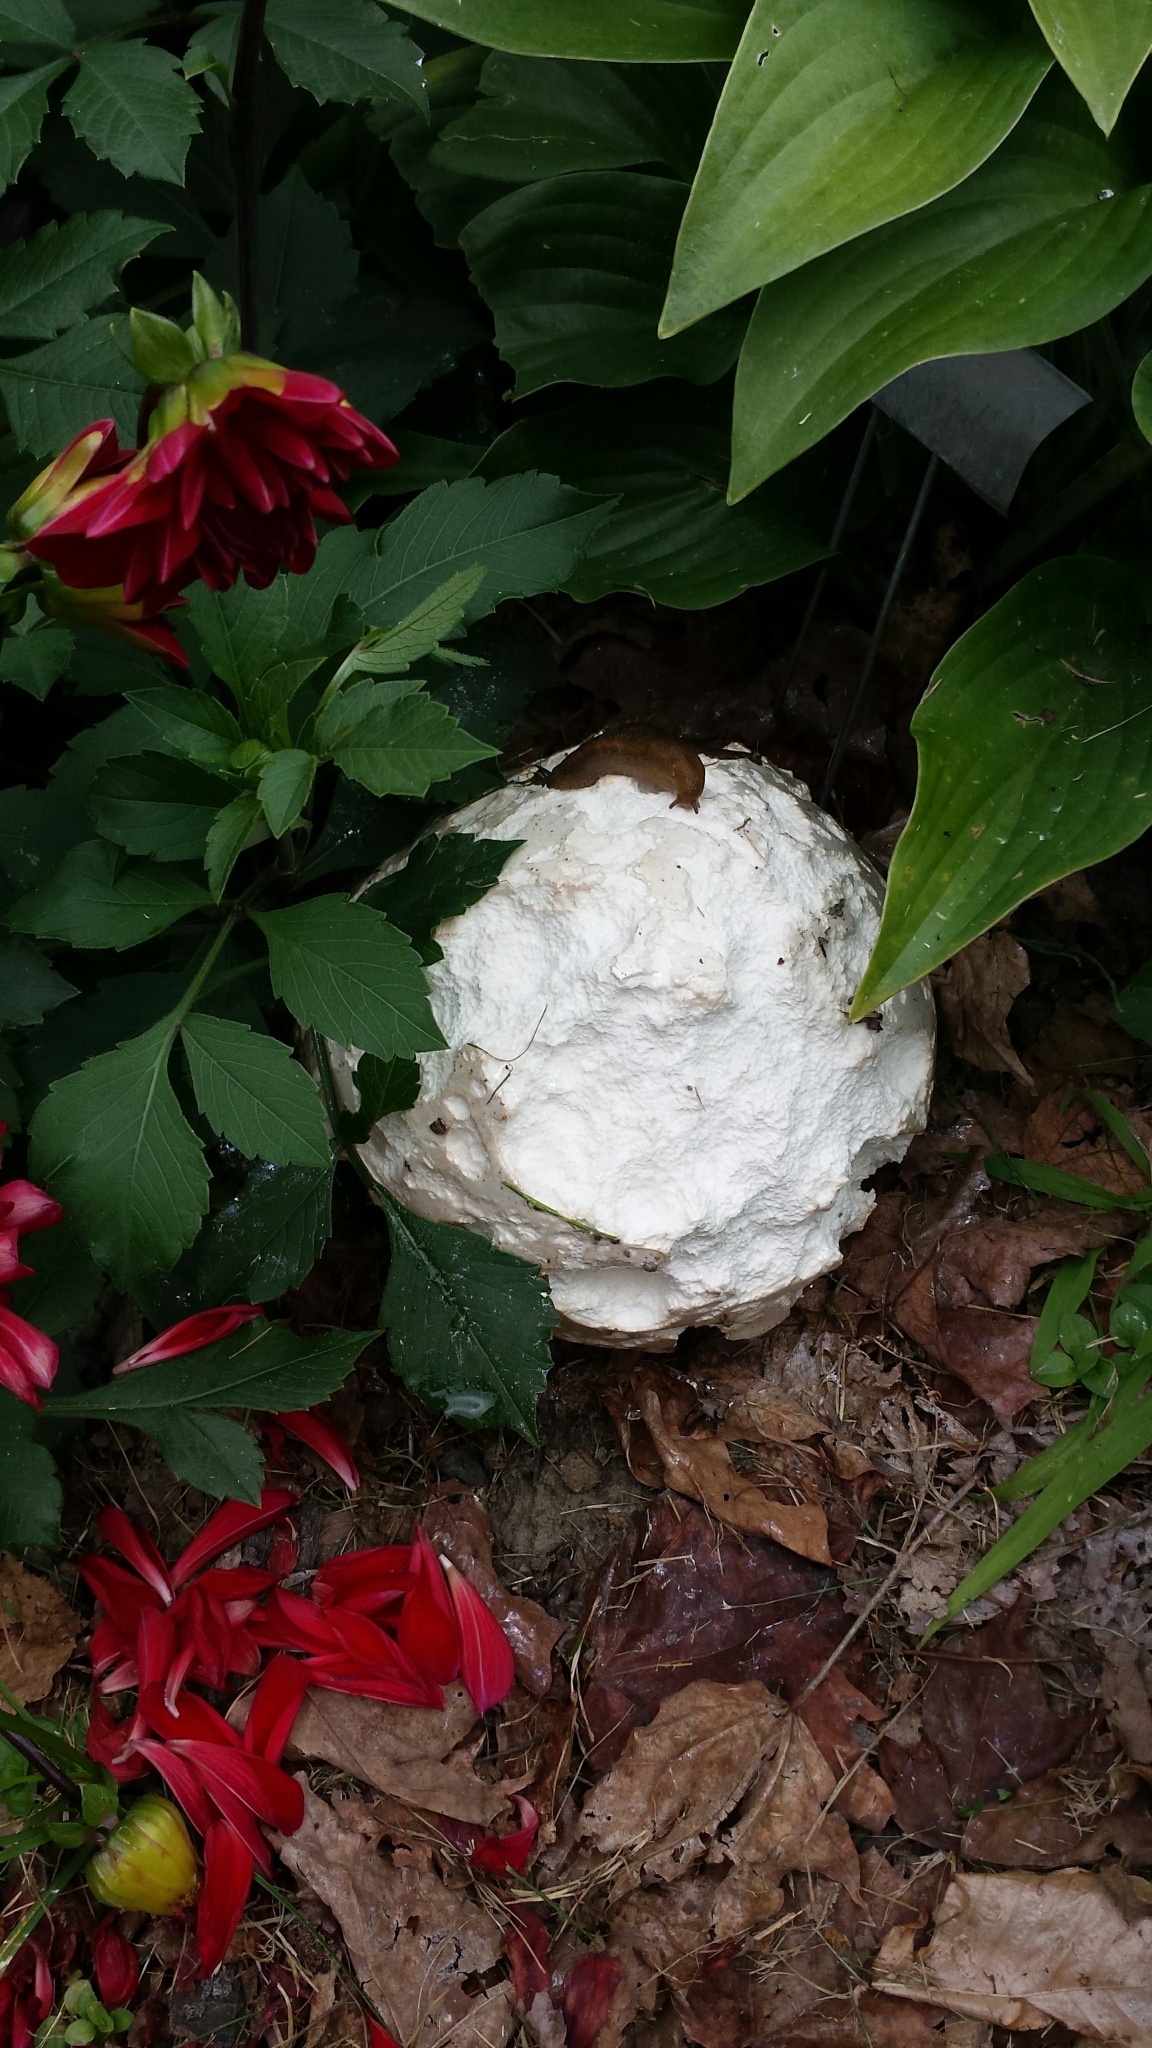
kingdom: Fungi
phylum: Basidiomycota
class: Agaricomycetes
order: Agaricales
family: Lycoperdaceae
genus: Calvatia
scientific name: Calvatia gigantea
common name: Giant puffball
